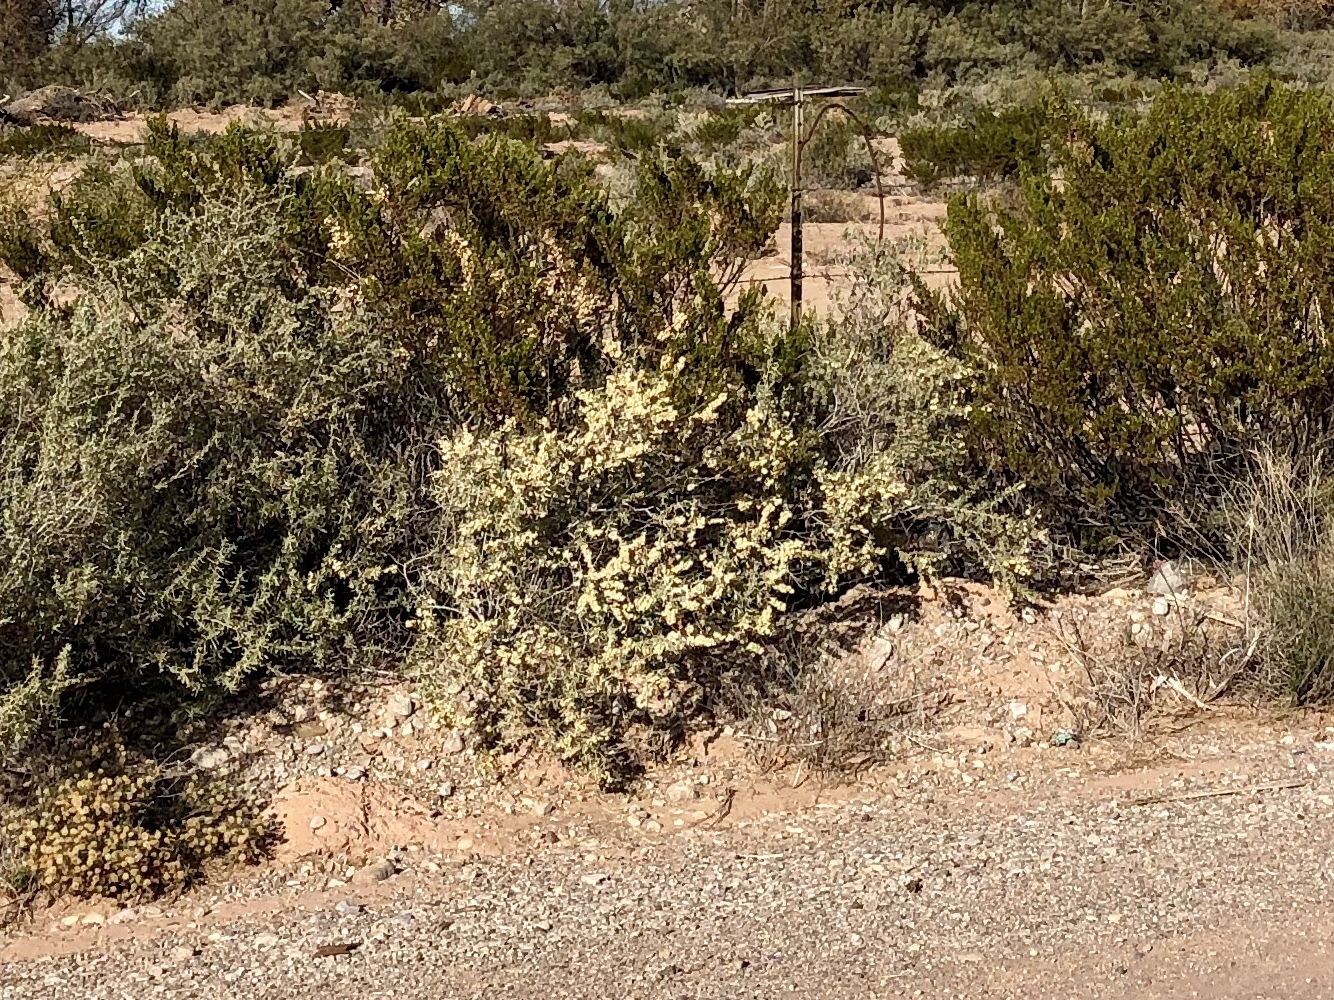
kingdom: Plantae
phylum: Tracheophyta
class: Magnoliopsida
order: Caryophyllales
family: Amaranthaceae
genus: Atriplex
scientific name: Atriplex canescens
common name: Four-wing saltbush
